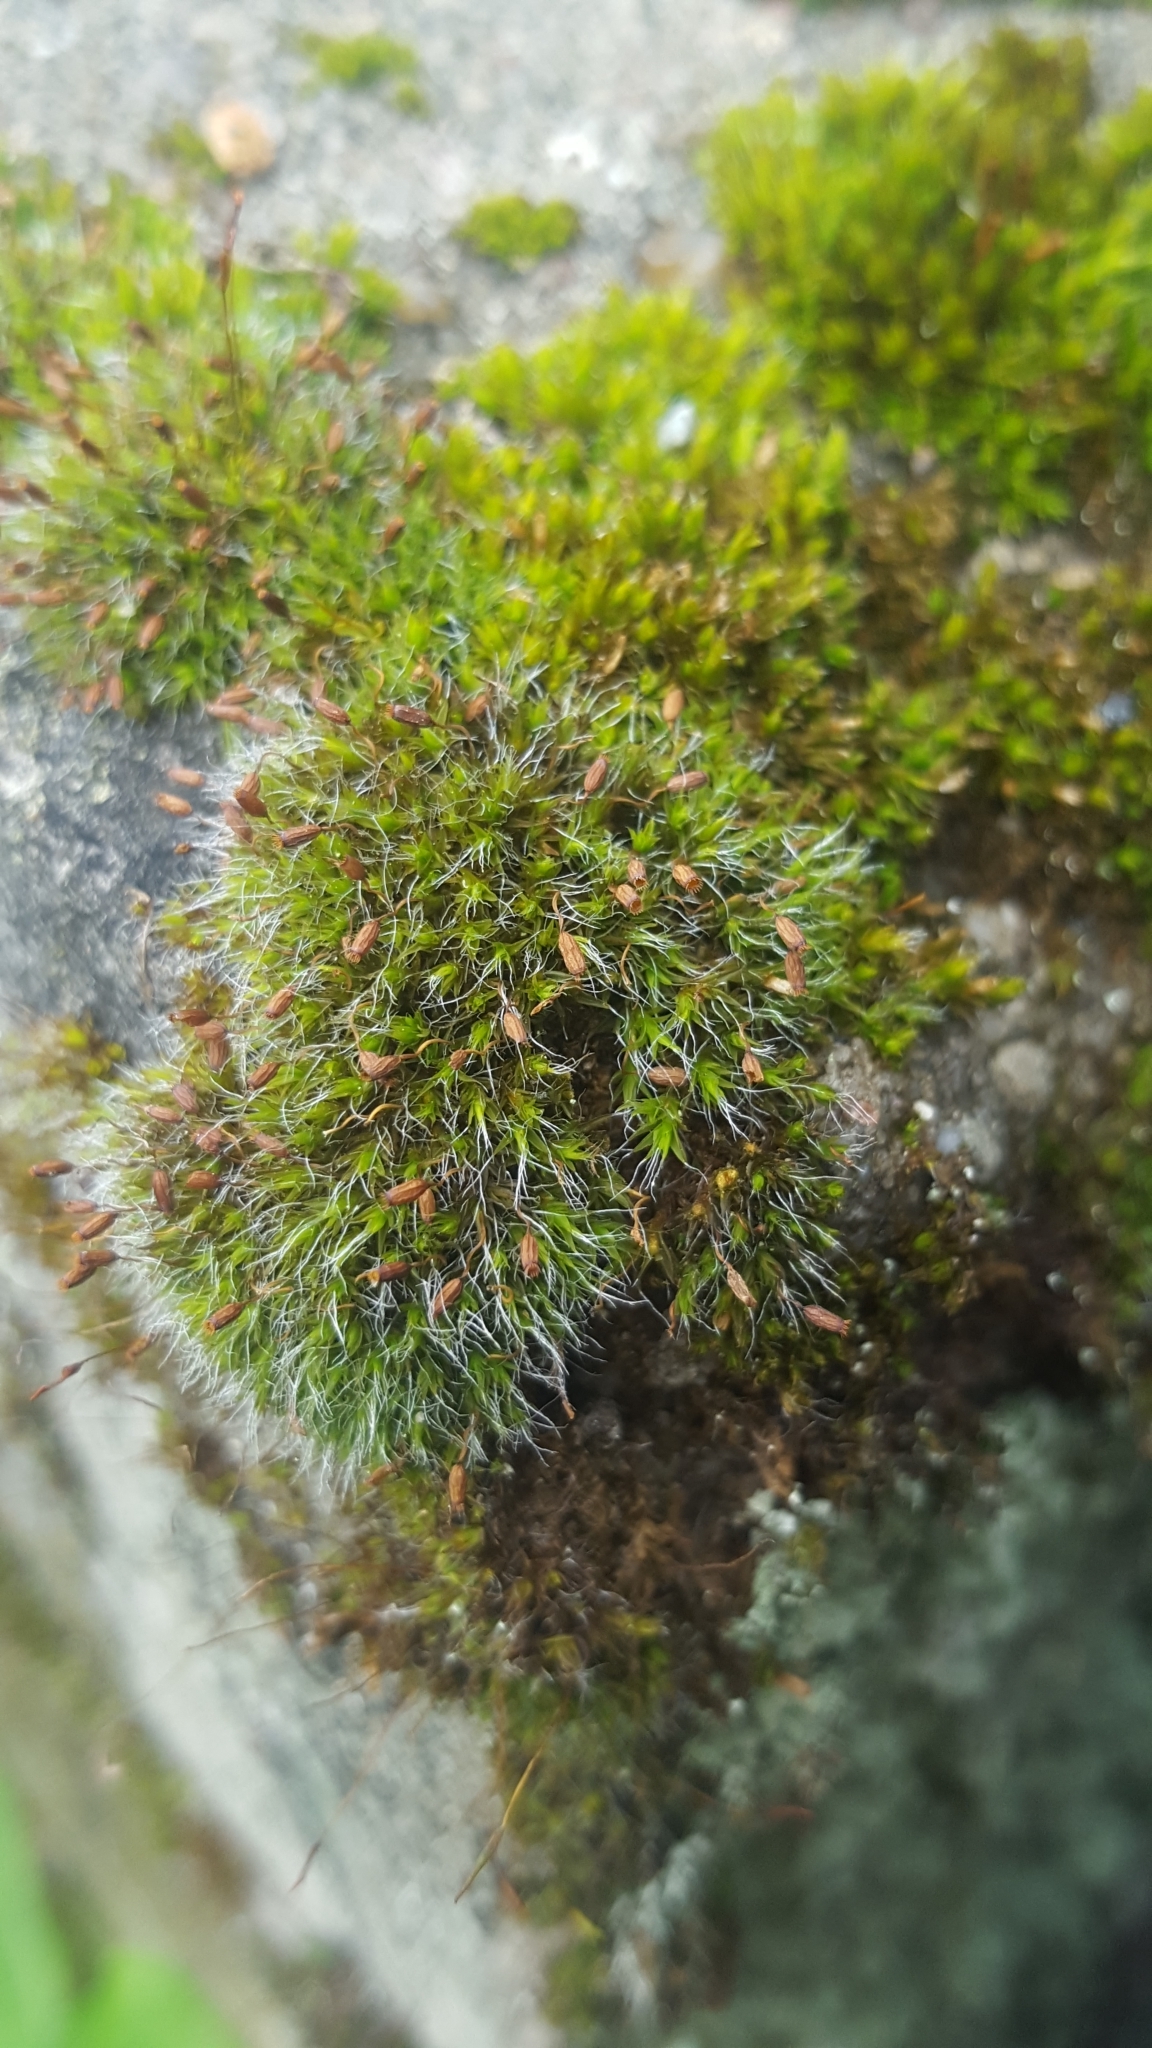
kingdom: Plantae
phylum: Bryophyta
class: Bryopsida
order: Grimmiales
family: Grimmiaceae
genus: Grimmia
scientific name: Grimmia pulvinata
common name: Grey-cushioned grimmia
